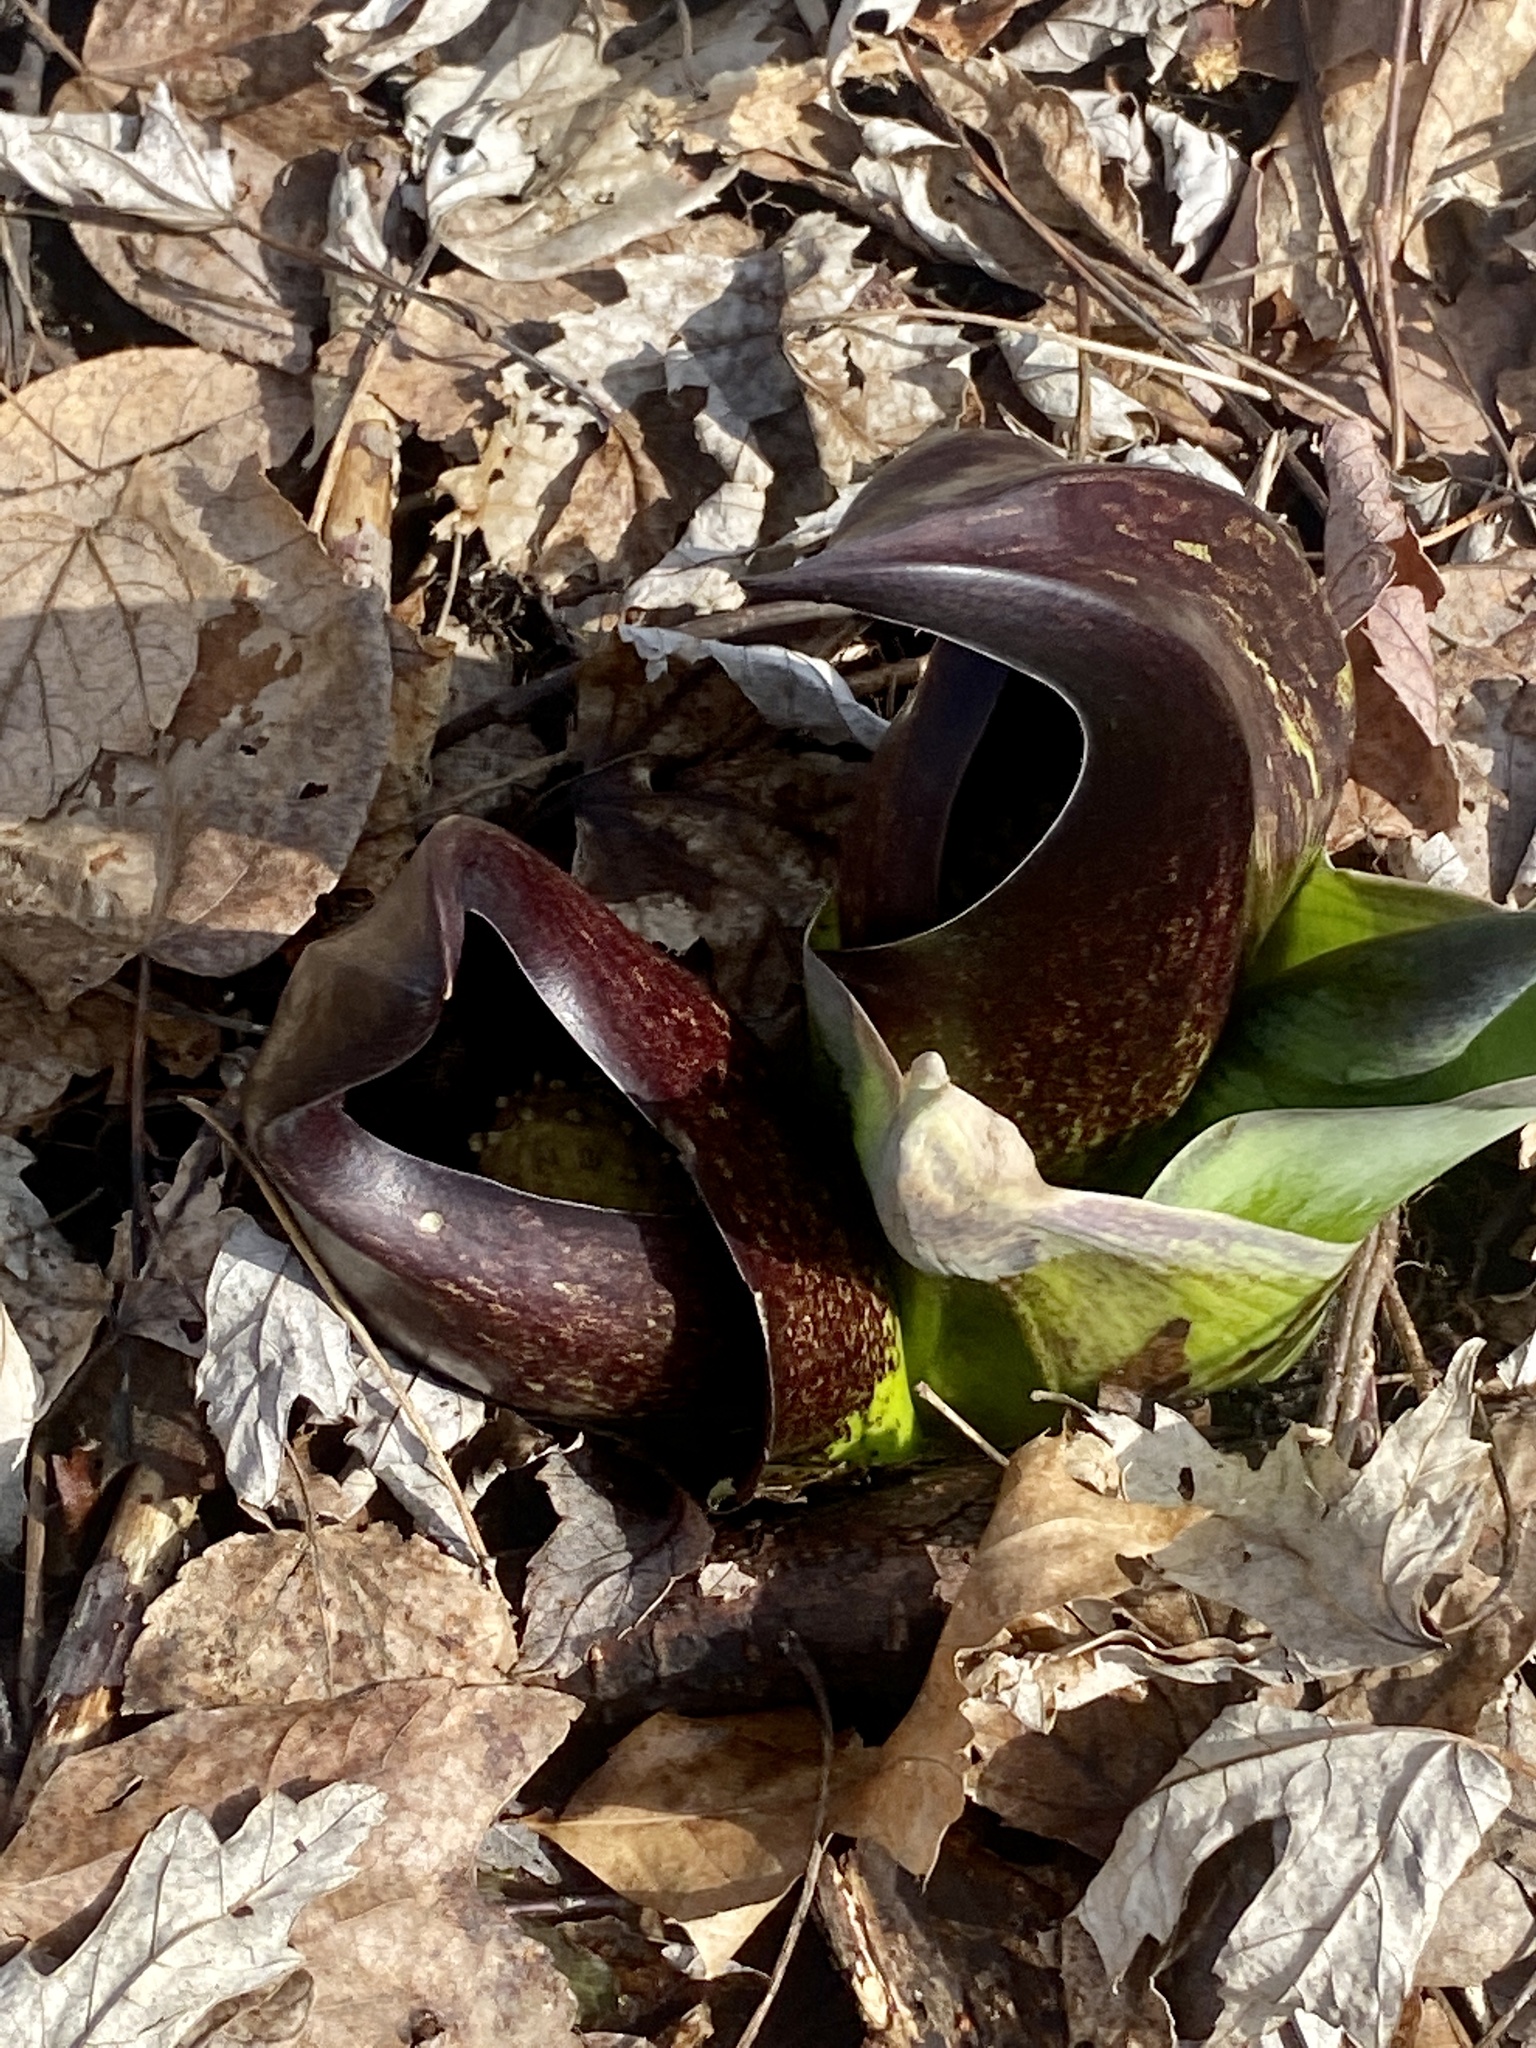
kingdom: Plantae
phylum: Tracheophyta
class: Liliopsida
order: Alismatales
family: Araceae
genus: Symplocarpus
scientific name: Symplocarpus foetidus
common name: Eastern skunk cabbage
